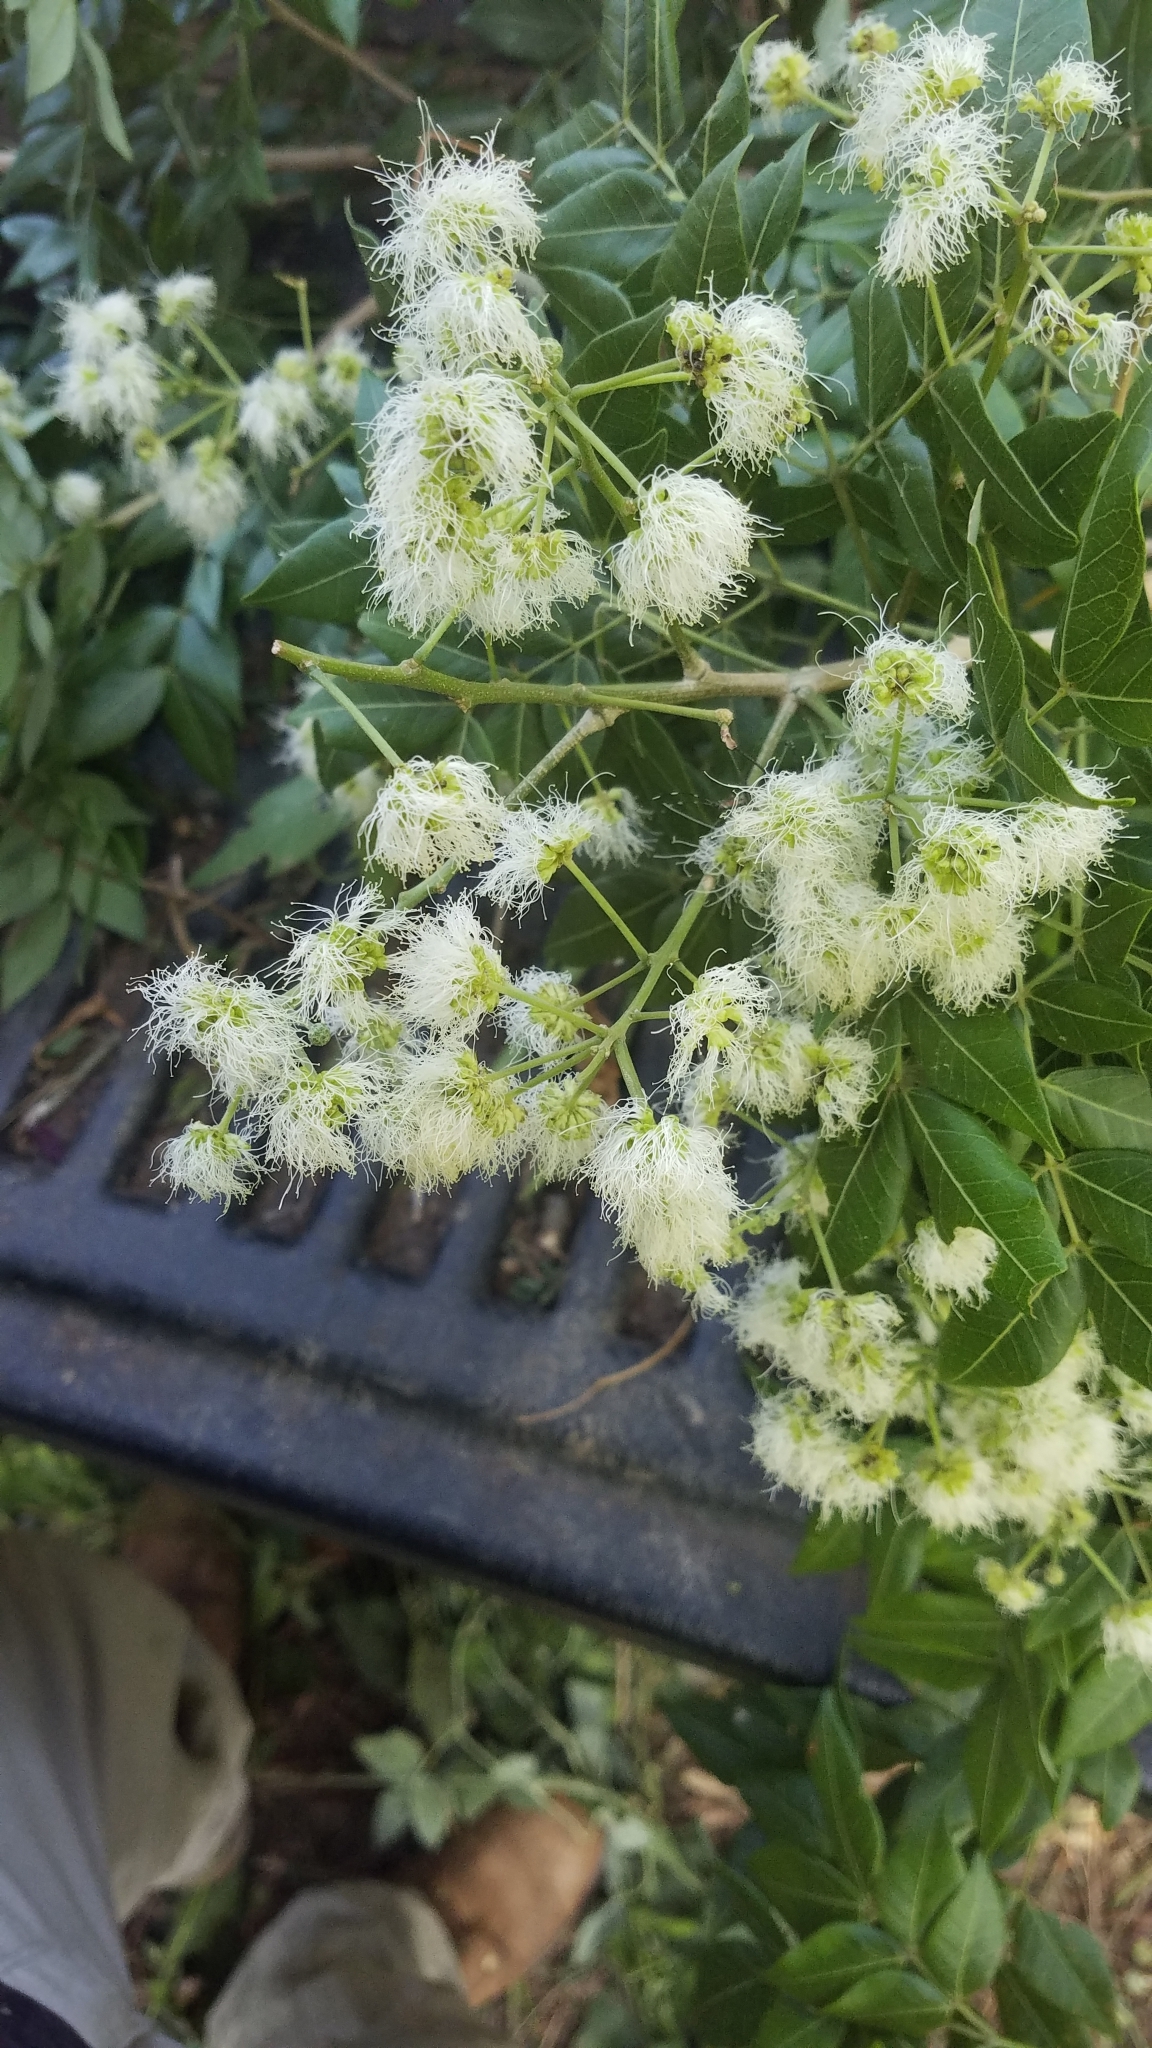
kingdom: Plantae
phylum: Tracheophyta
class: Magnoliopsida
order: Fabales
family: Fabaceae
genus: Albizia
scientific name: Albizia adinocephala
